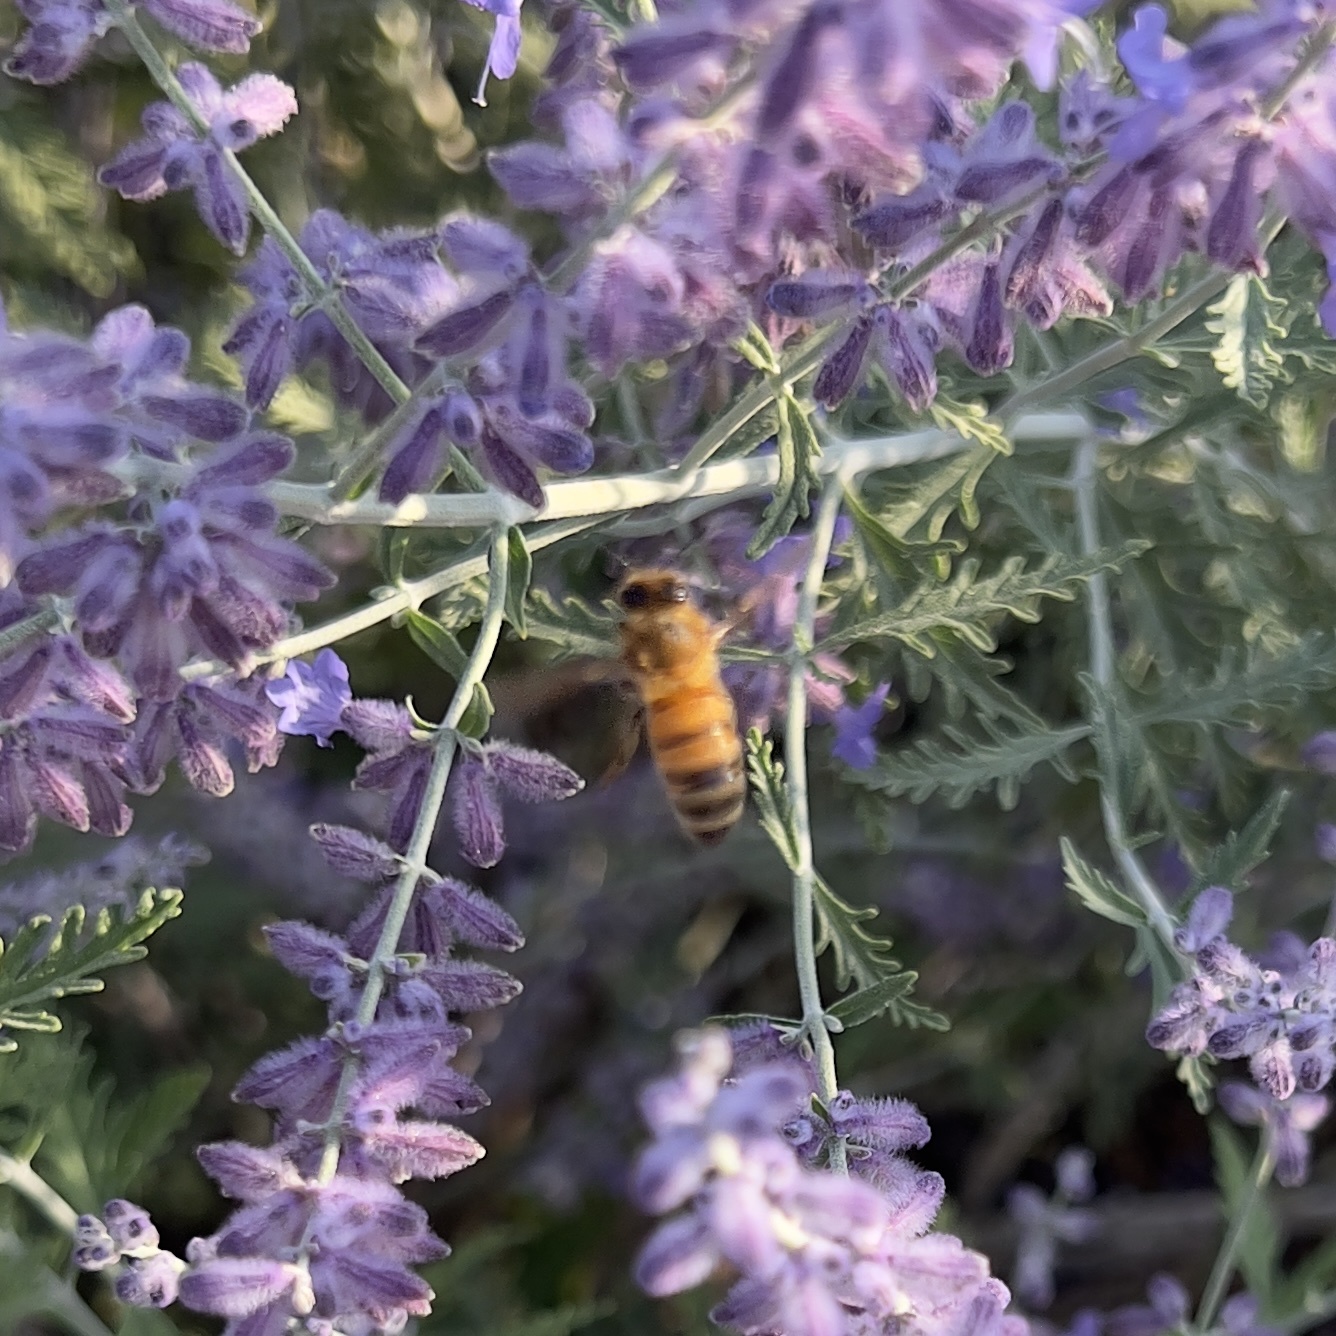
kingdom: Animalia
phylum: Arthropoda
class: Insecta
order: Hymenoptera
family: Apidae
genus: Apis
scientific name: Apis mellifera
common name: Honey bee
